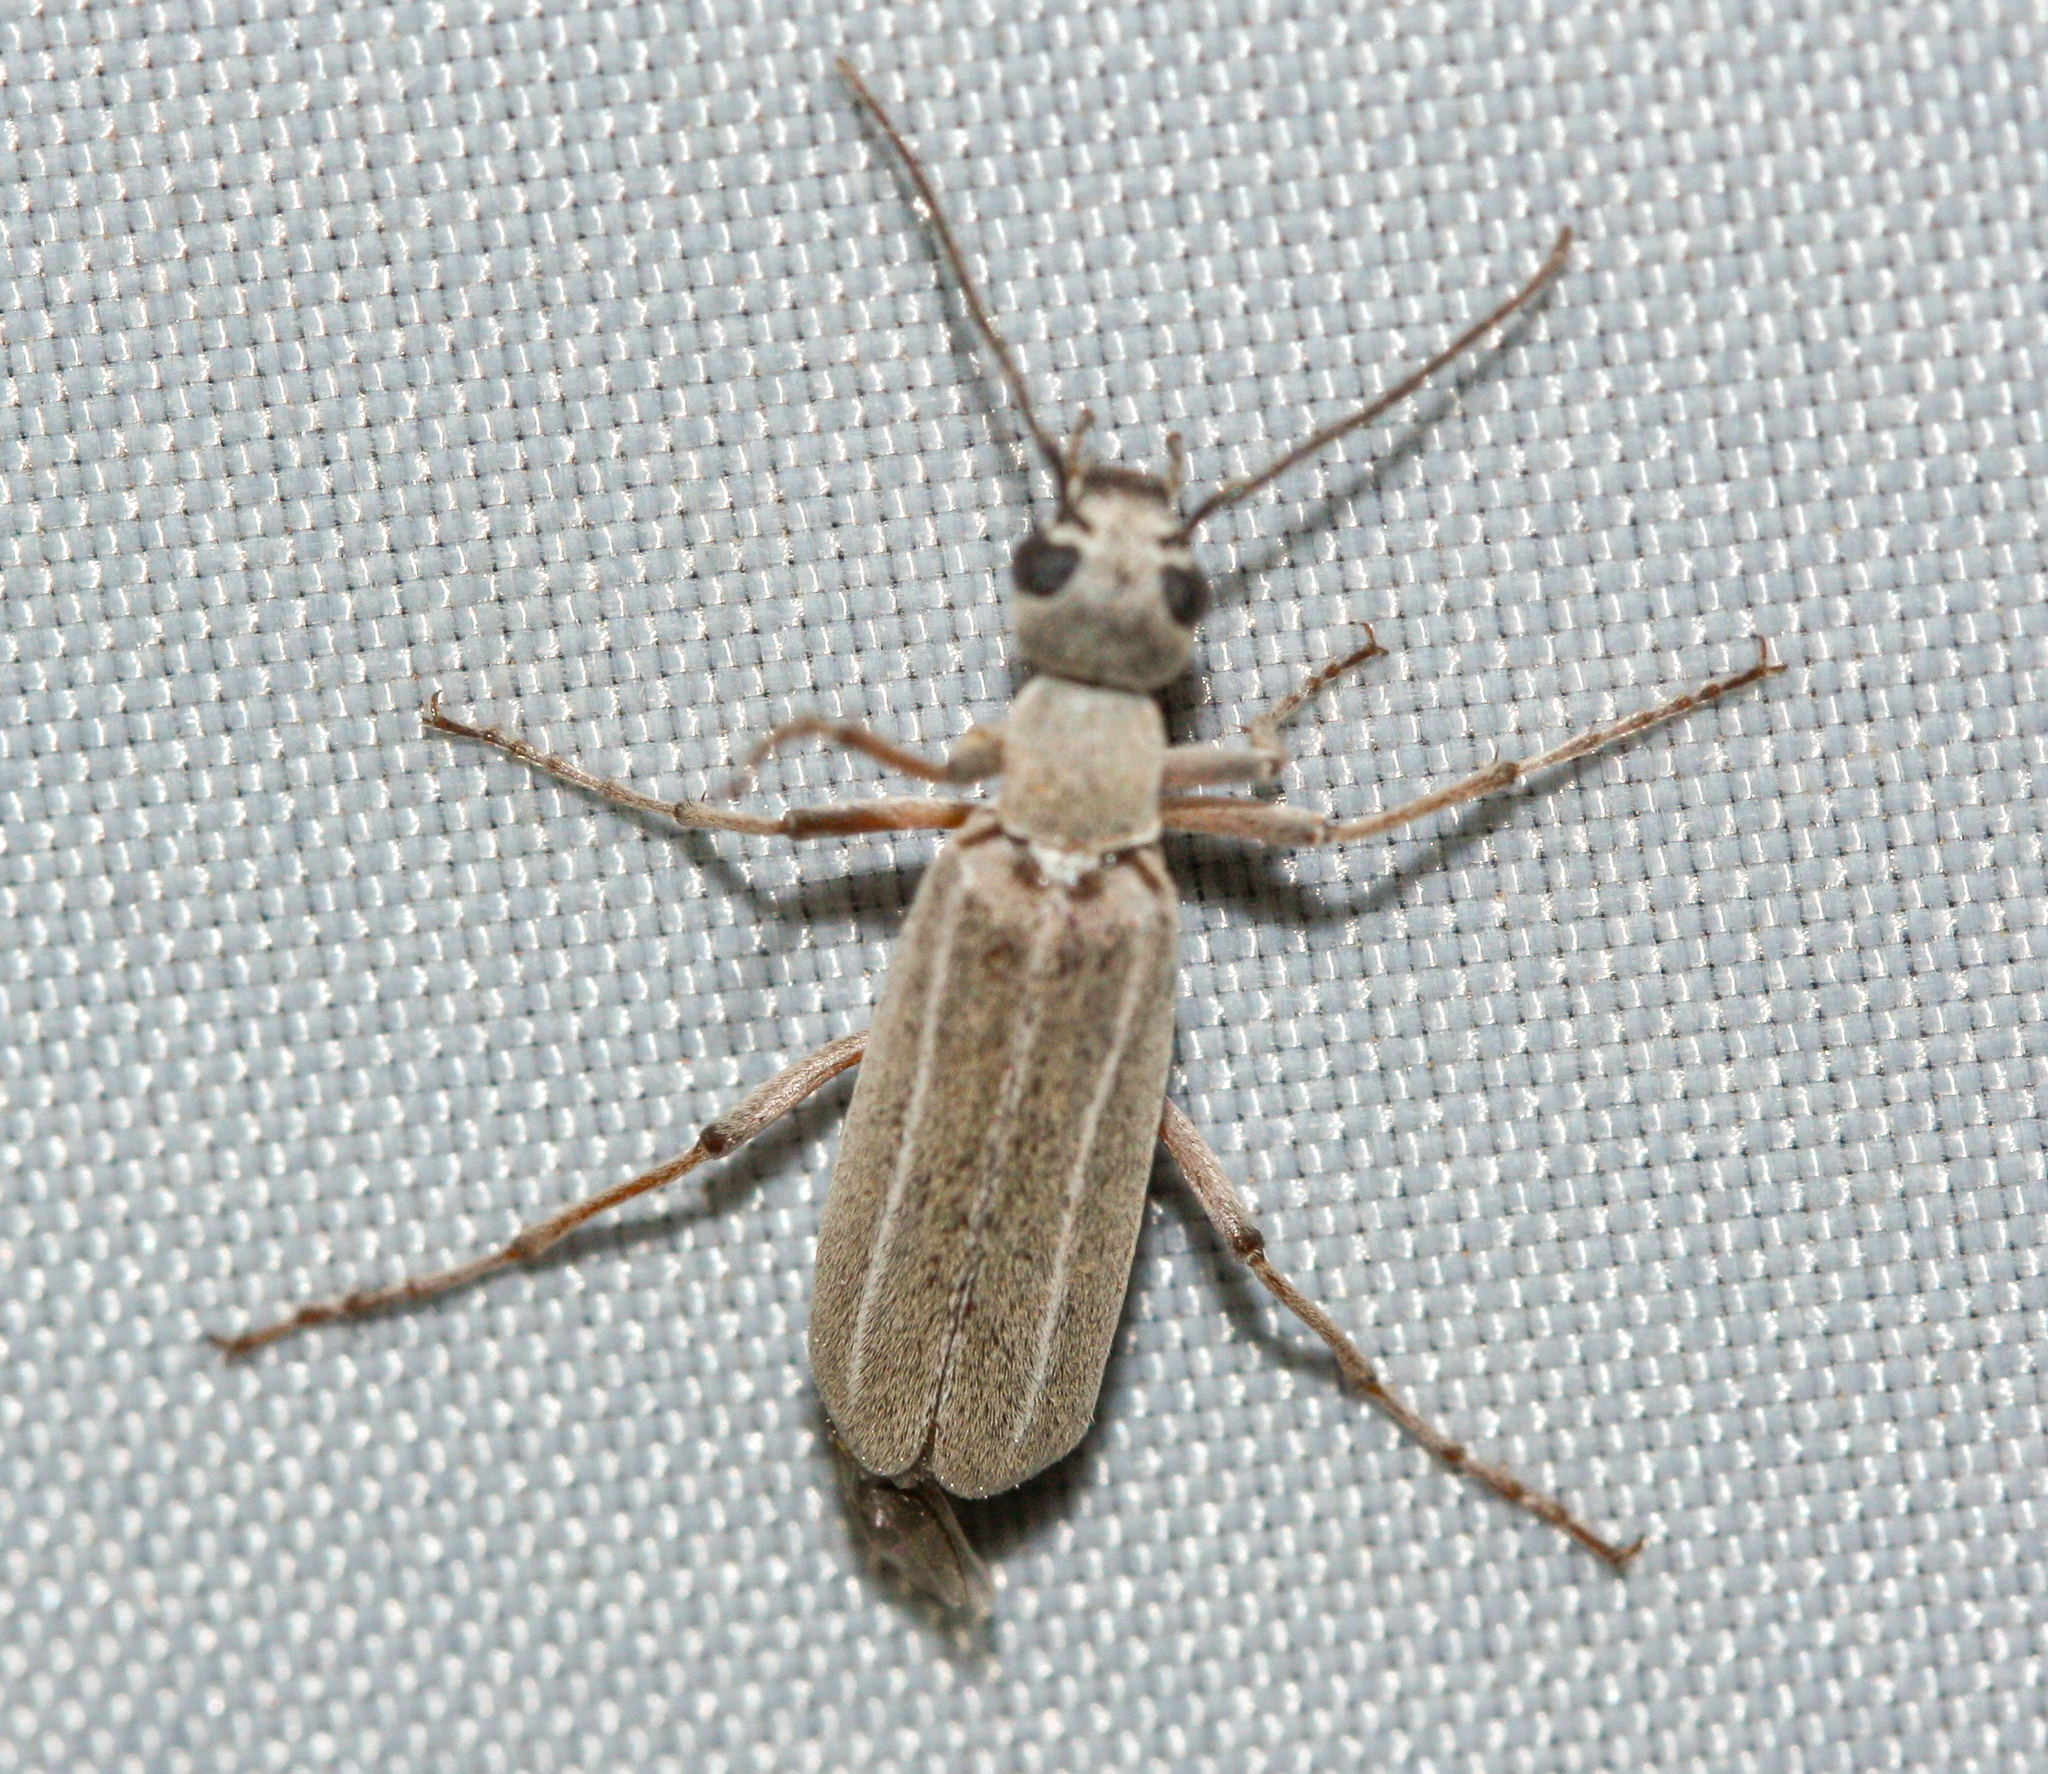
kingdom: Animalia
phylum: Arthropoda
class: Insecta
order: Coleoptera
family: Meloidae
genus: Epicauta
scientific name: Epicauta virgulata
